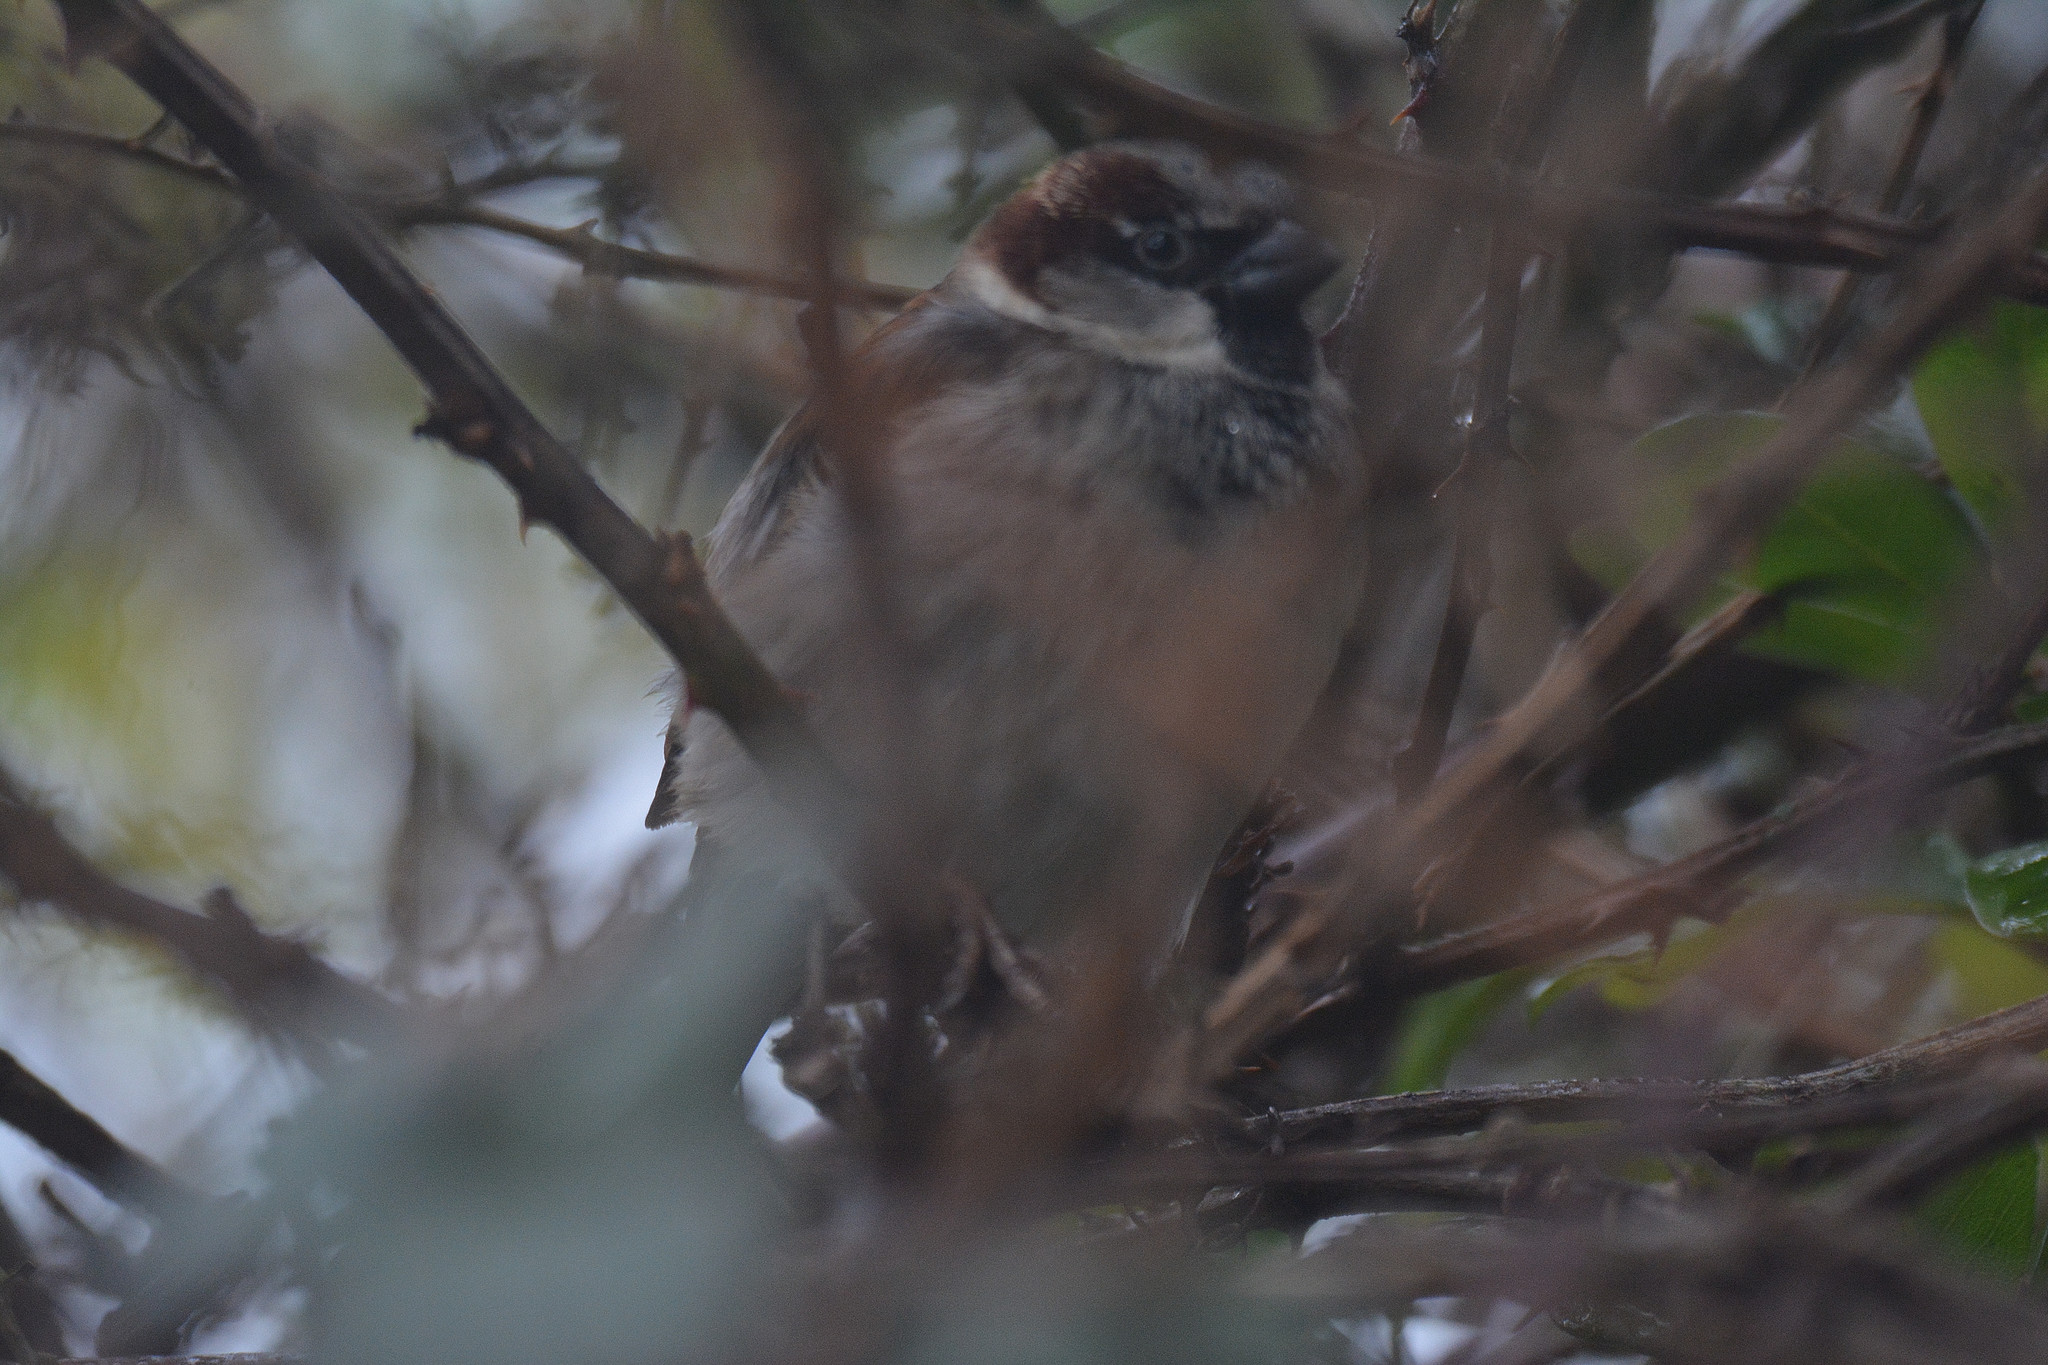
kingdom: Animalia
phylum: Chordata
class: Aves
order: Passeriformes
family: Passeridae
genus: Passer
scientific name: Passer domesticus
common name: House sparrow
